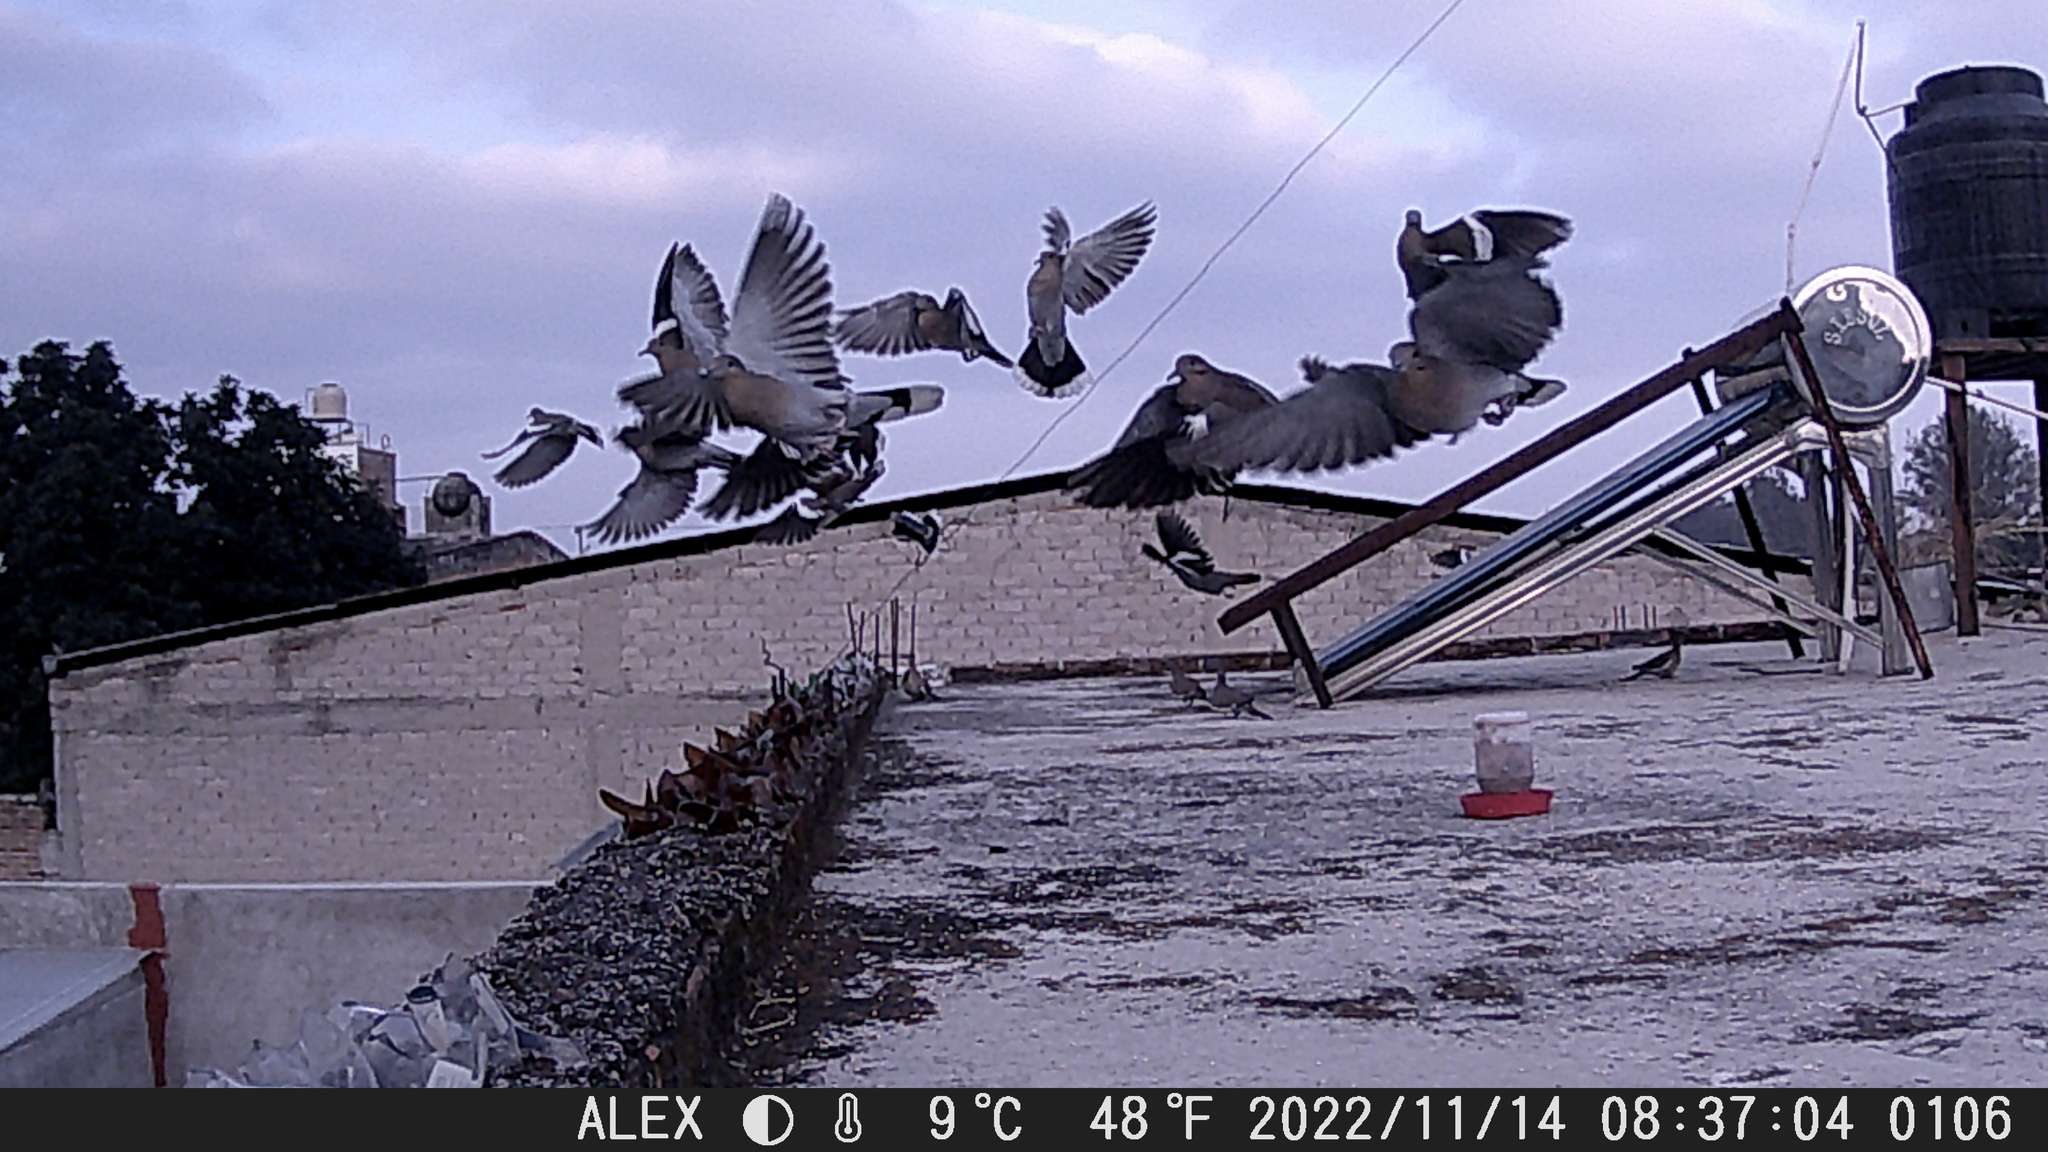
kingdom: Animalia
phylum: Chordata
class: Aves
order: Columbiformes
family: Columbidae
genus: Zenaida
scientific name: Zenaida asiatica
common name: White-winged dove
